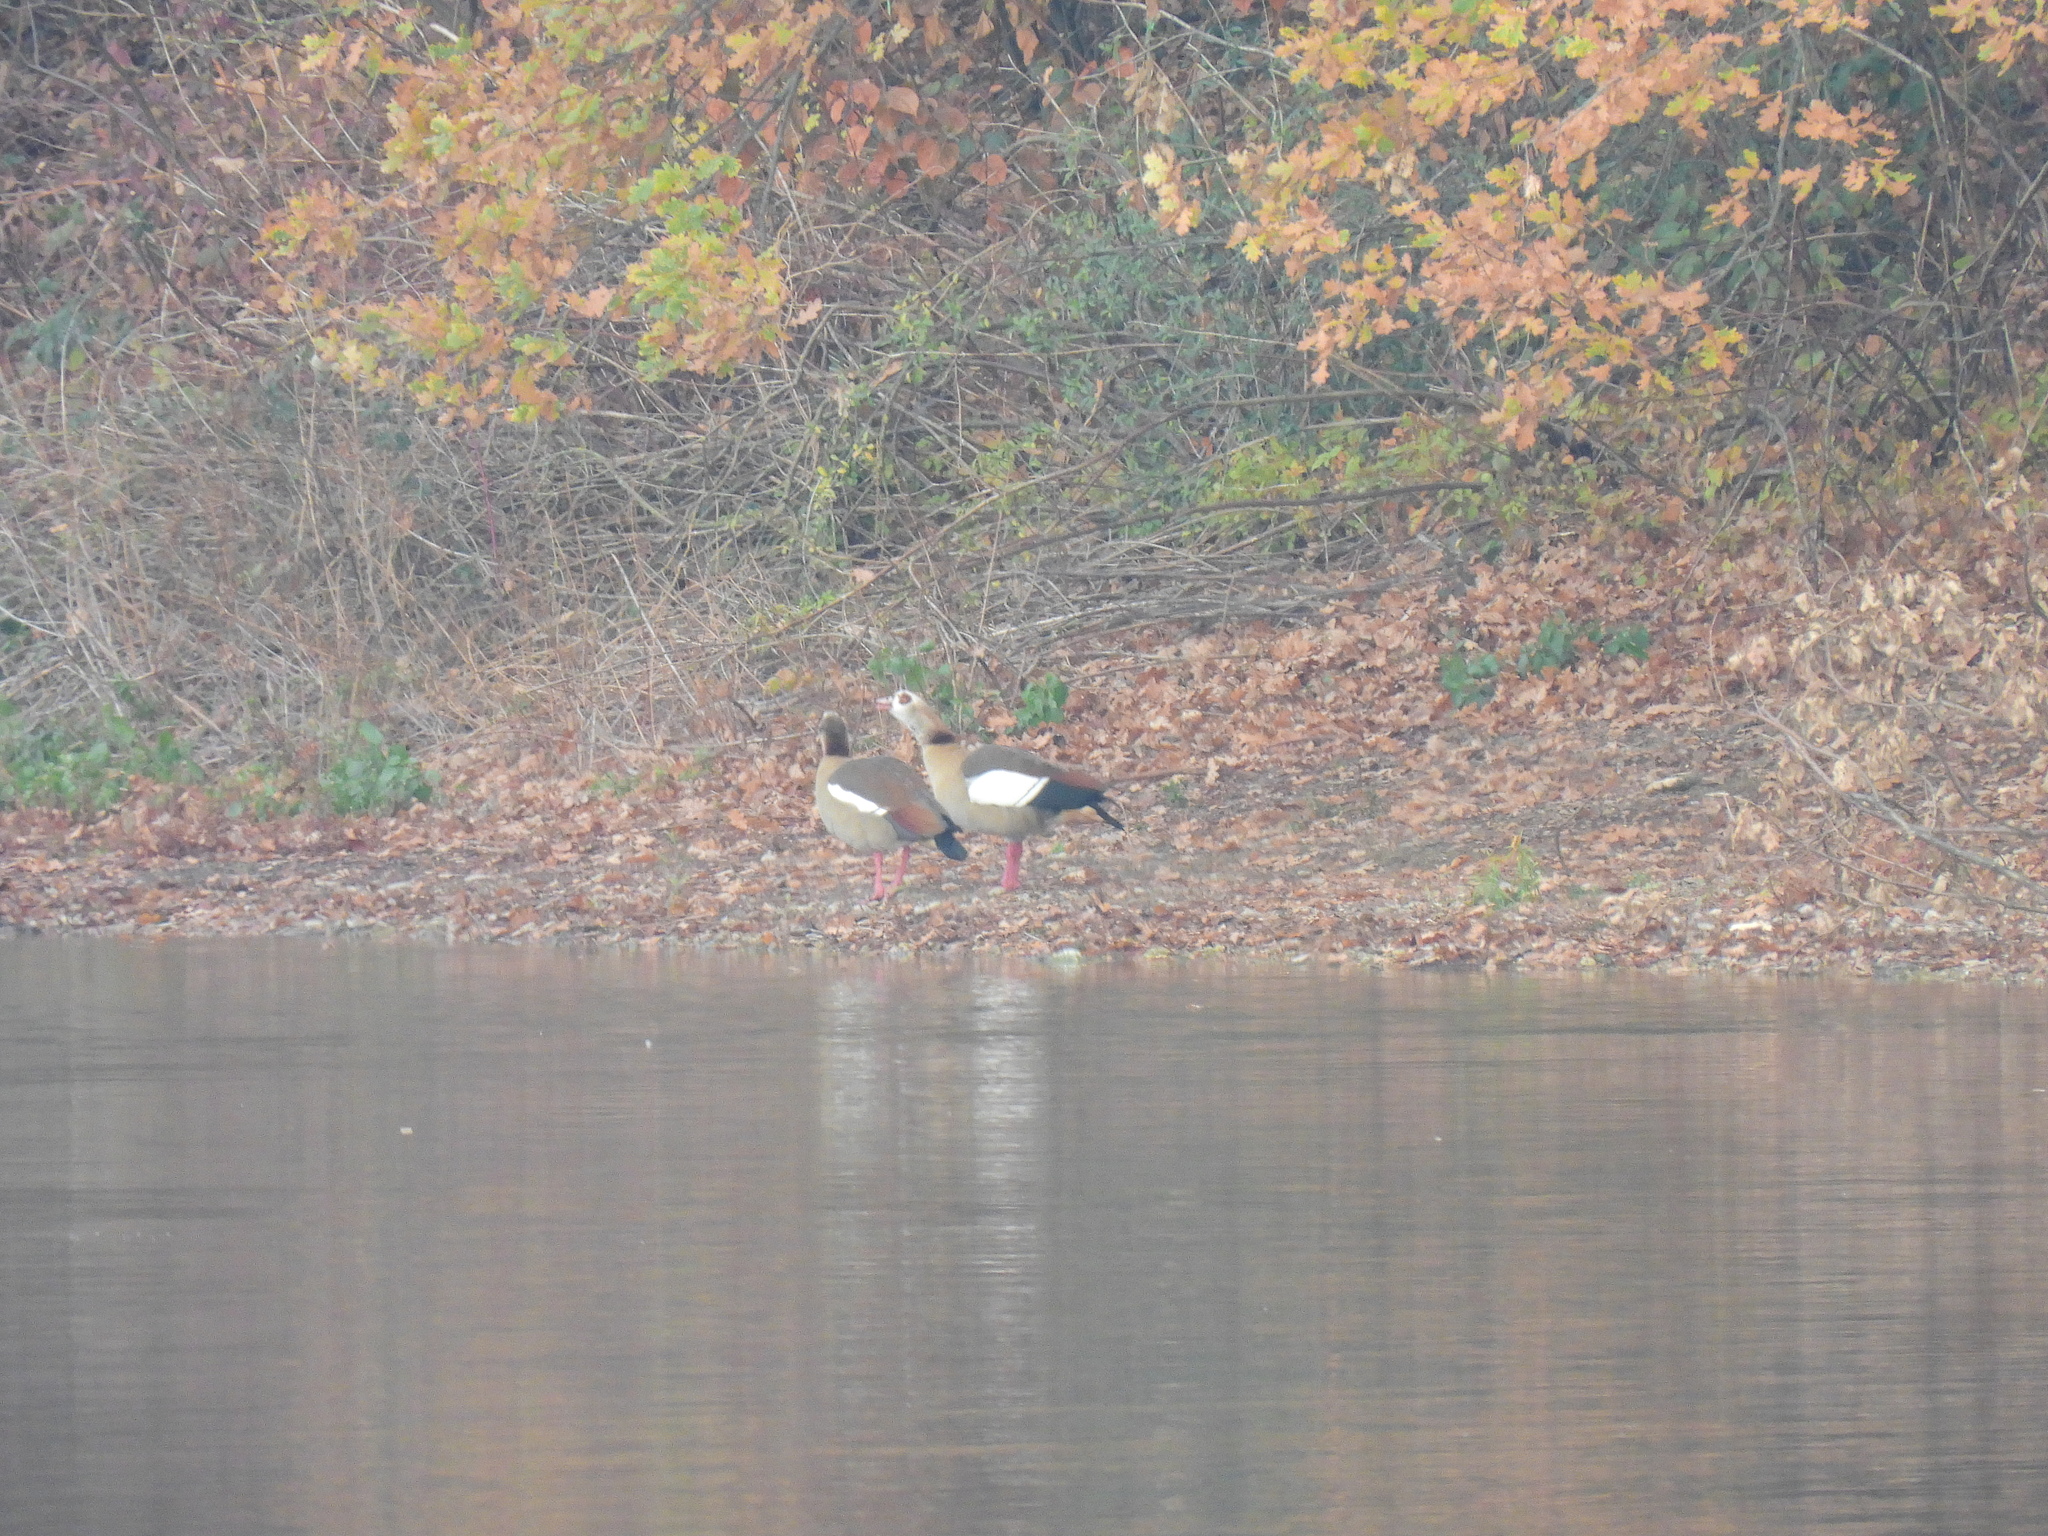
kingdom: Animalia
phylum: Chordata
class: Aves
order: Anseriformes
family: Anatidae
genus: Alopochen
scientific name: Alopochen aegyptiaca
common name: Egyptian goose
